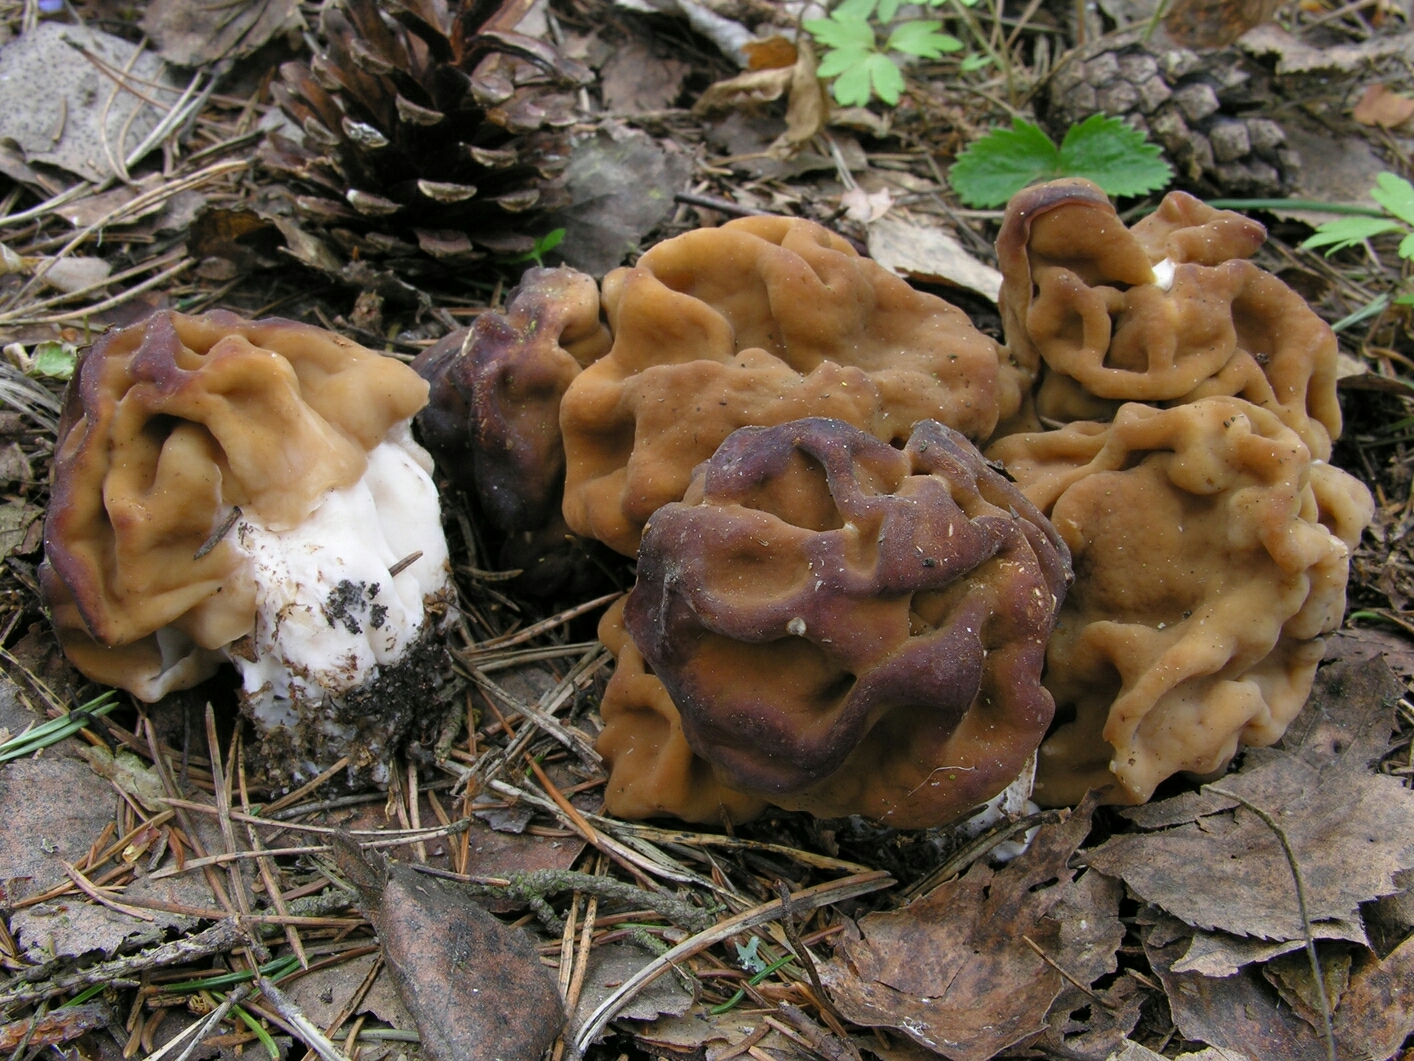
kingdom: Fungi
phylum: Ascomycota
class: Pezizomycetes
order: Pezizales
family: Discinaceae
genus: Gyromitra
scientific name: Gyromitra gigas
